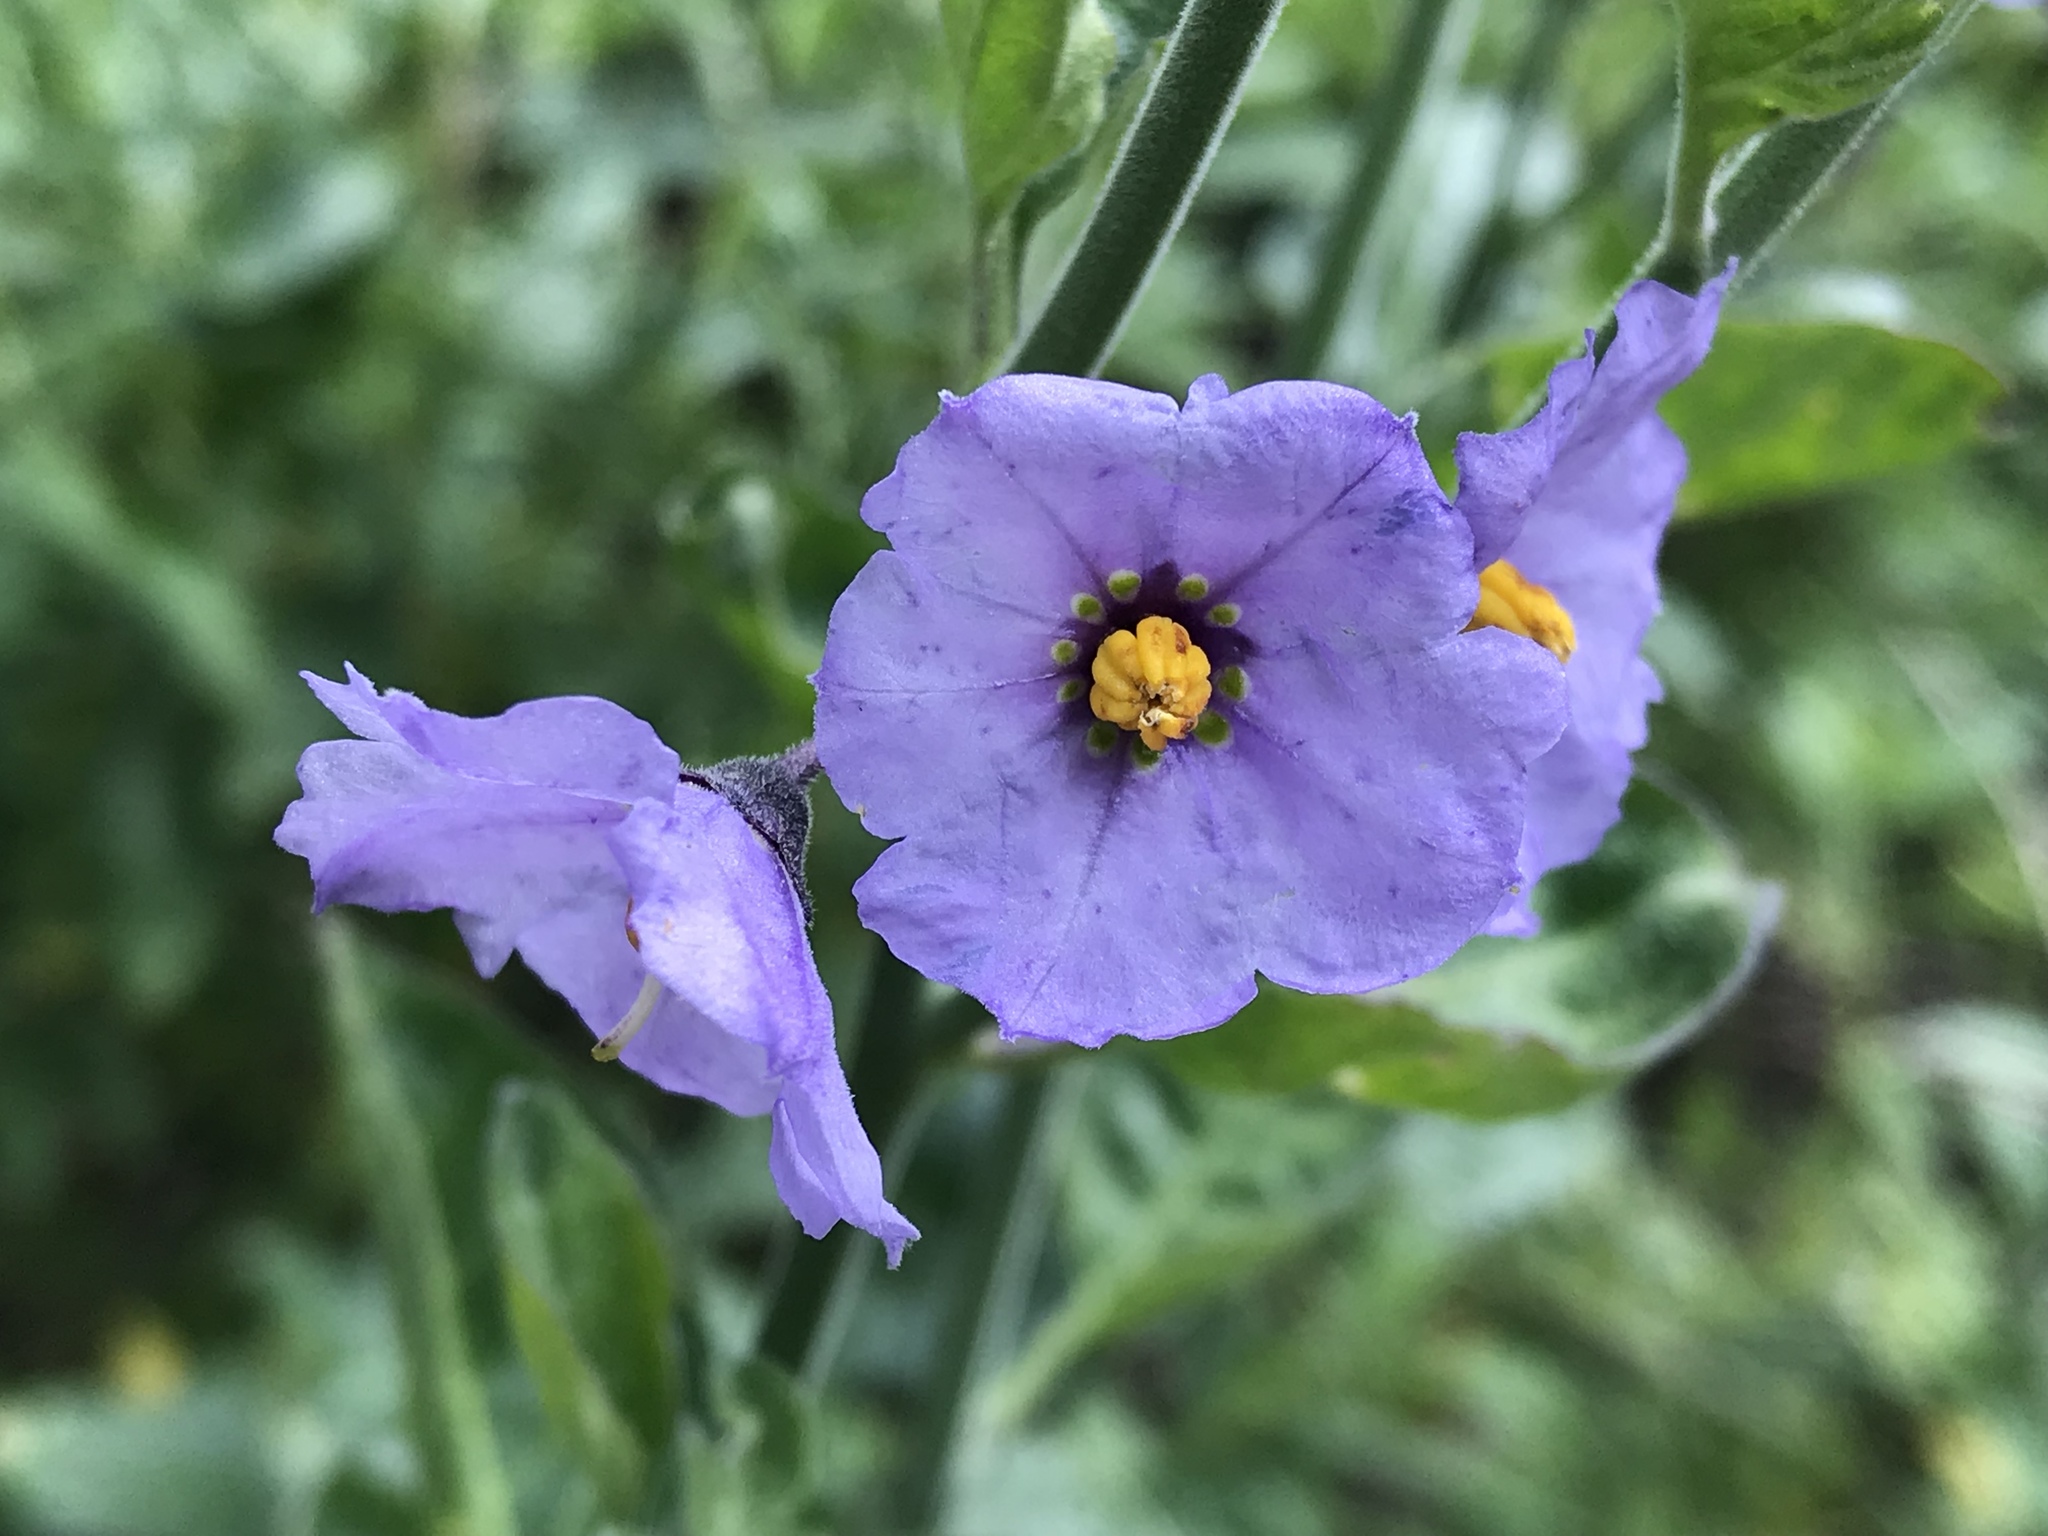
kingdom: Plantae
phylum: Tracheophyta
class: Magnoliopsida
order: Solanales
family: Solanaceae
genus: Solanum
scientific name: Solanum umbelliferum
